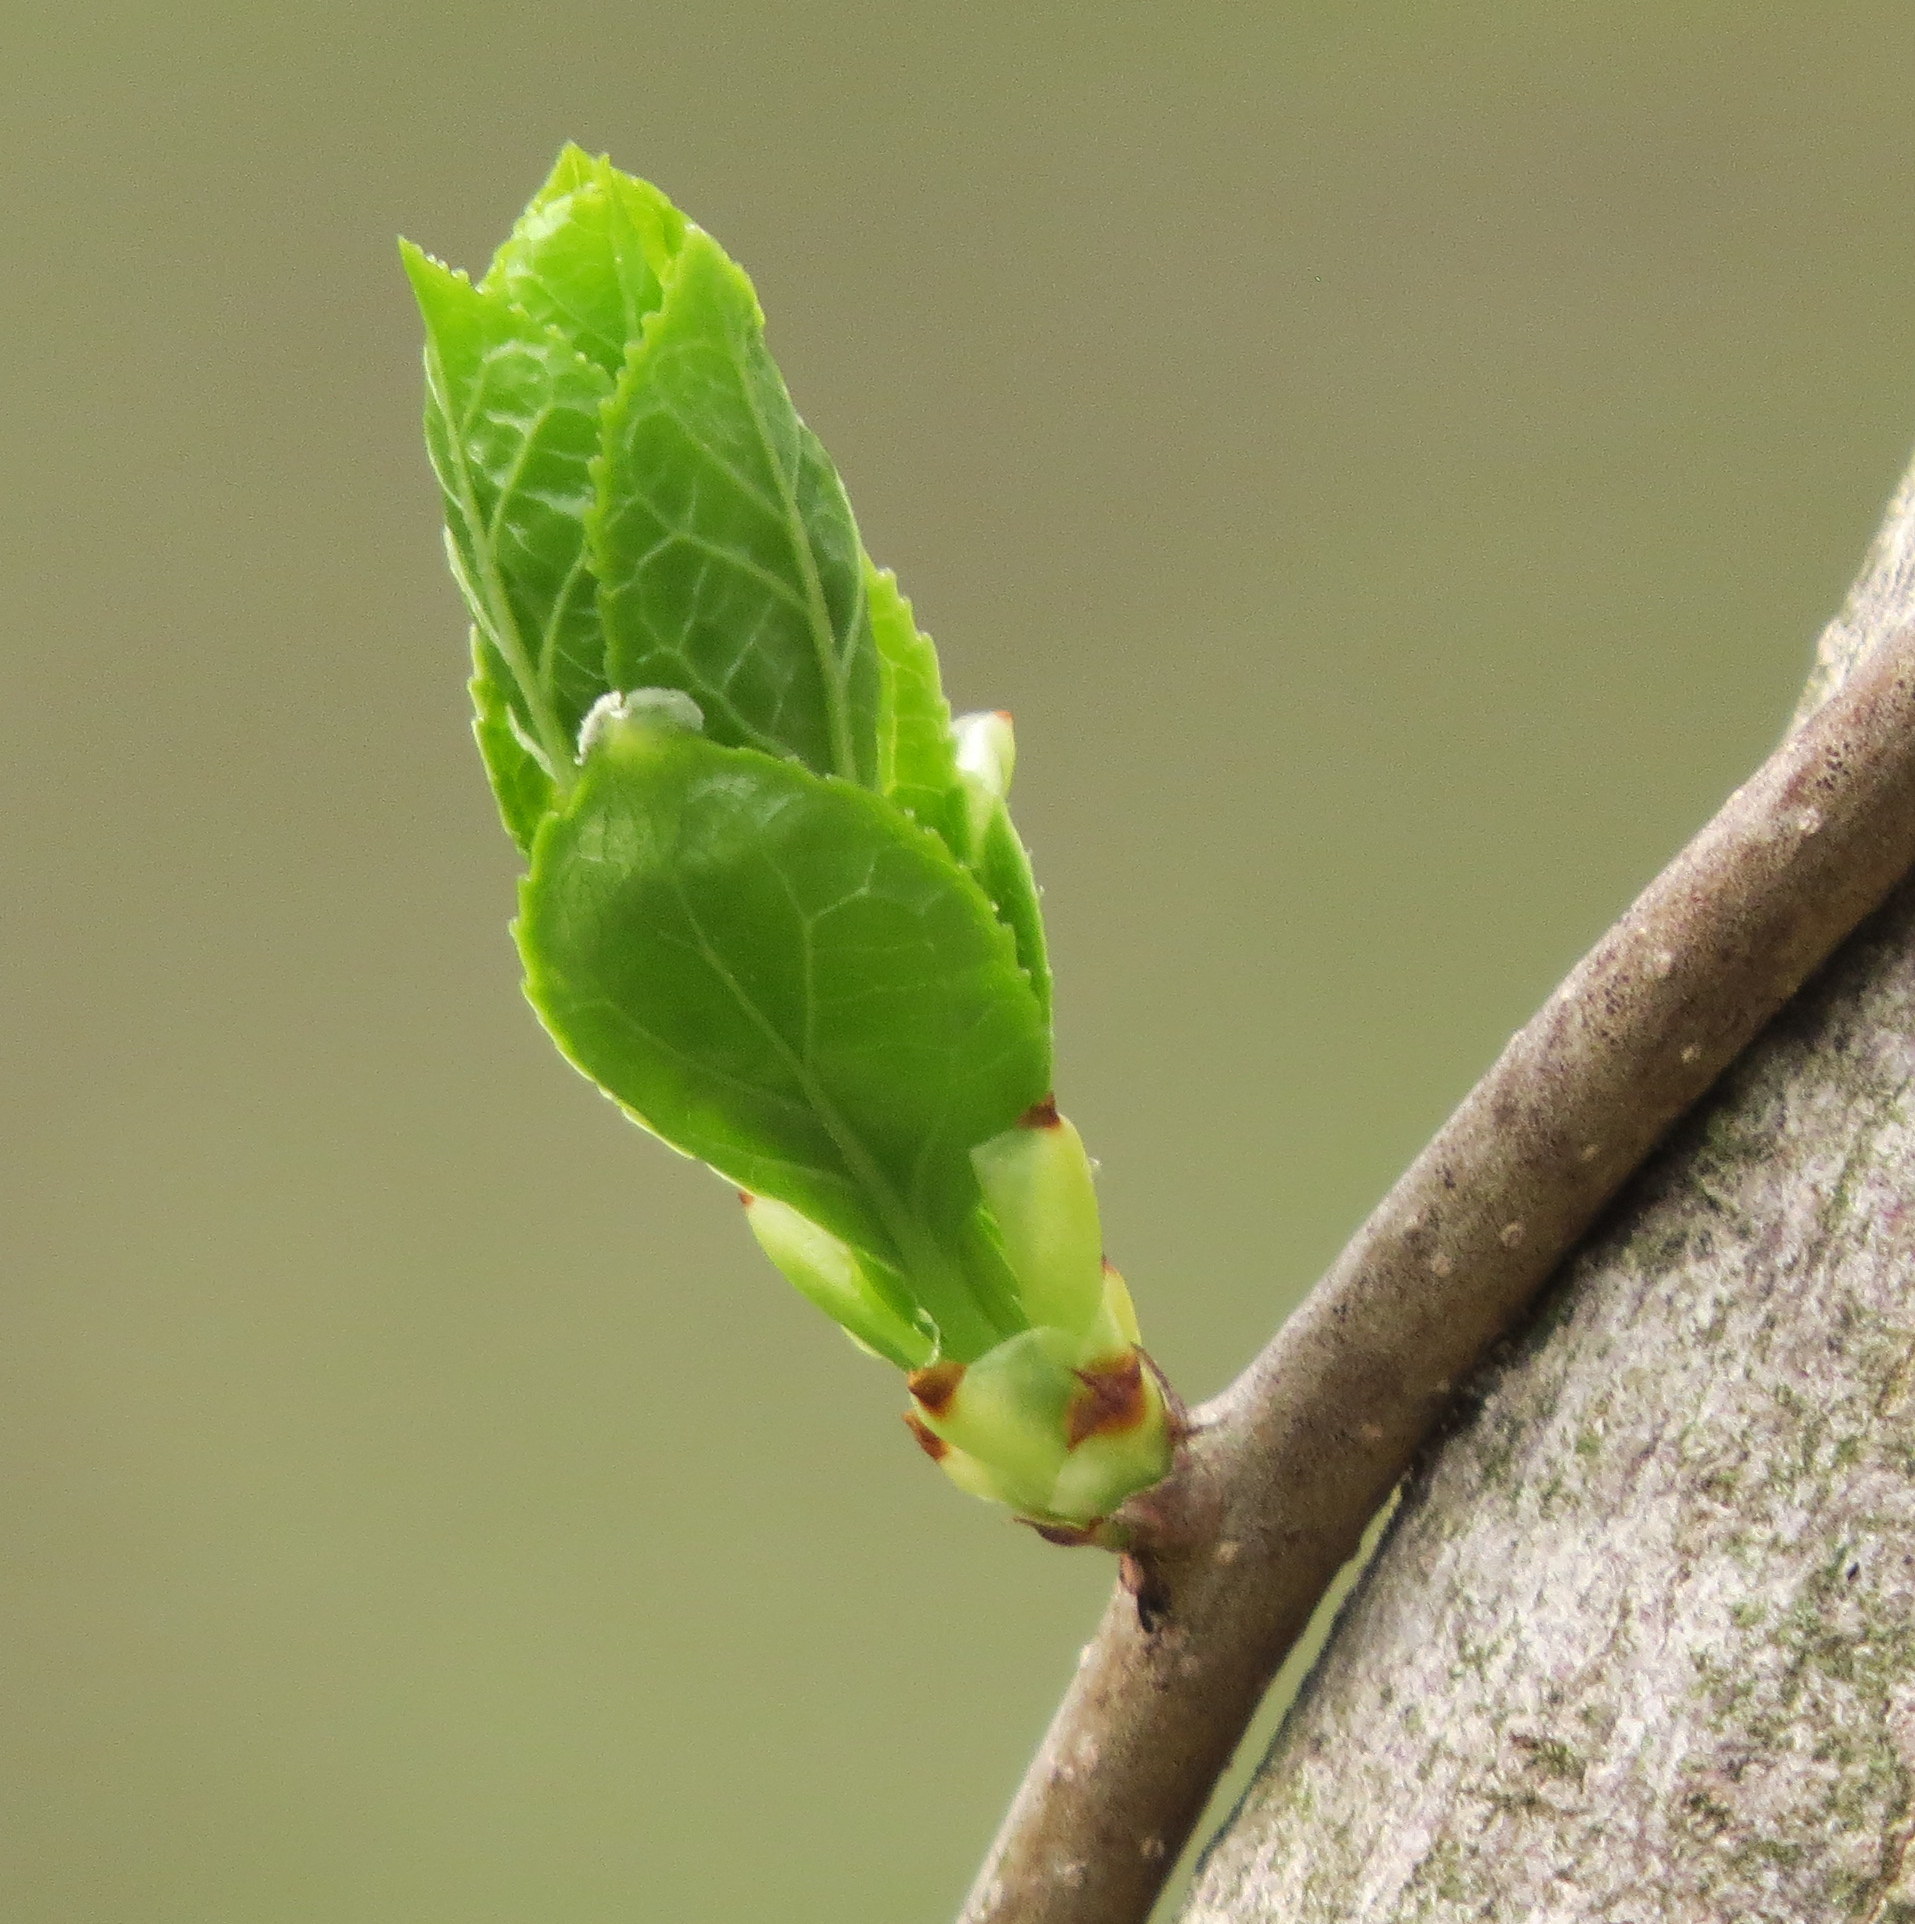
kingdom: Plantae
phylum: Tracheophyta
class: Magnoliopsida
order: Celastrales
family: Celastraceae
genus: Celastrus
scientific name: Celastrus orbiculatus
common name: Oriental bittersweet
